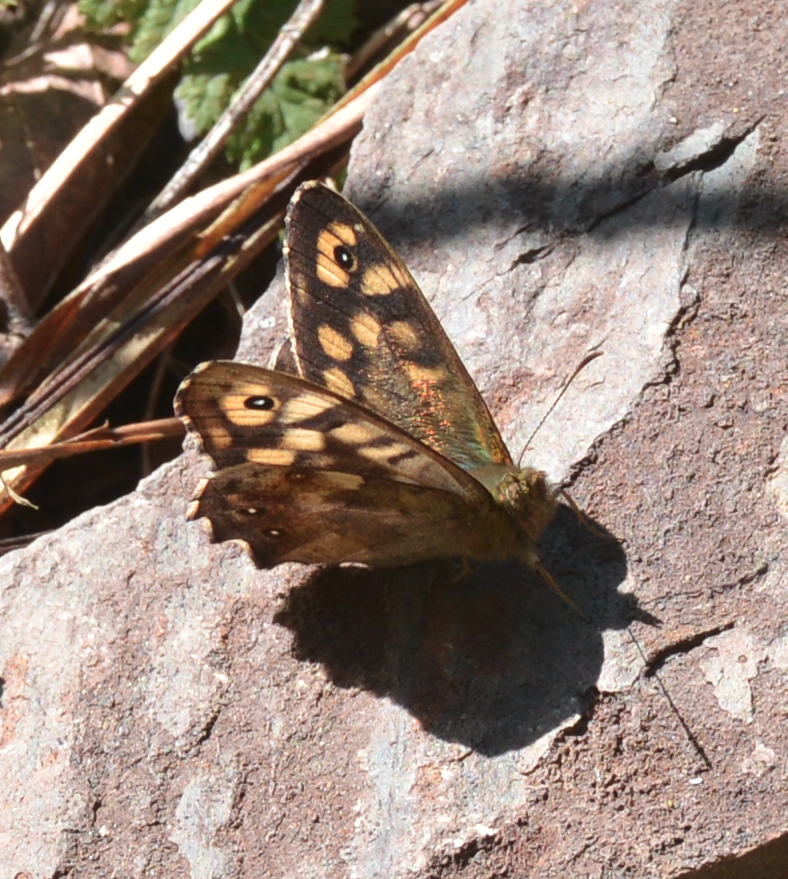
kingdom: Animalia
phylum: Arthropoda
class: Insecta
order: Lepidoptera
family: Nymphalidae
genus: Pararge
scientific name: Pararge aegeria
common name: Speckled wood
